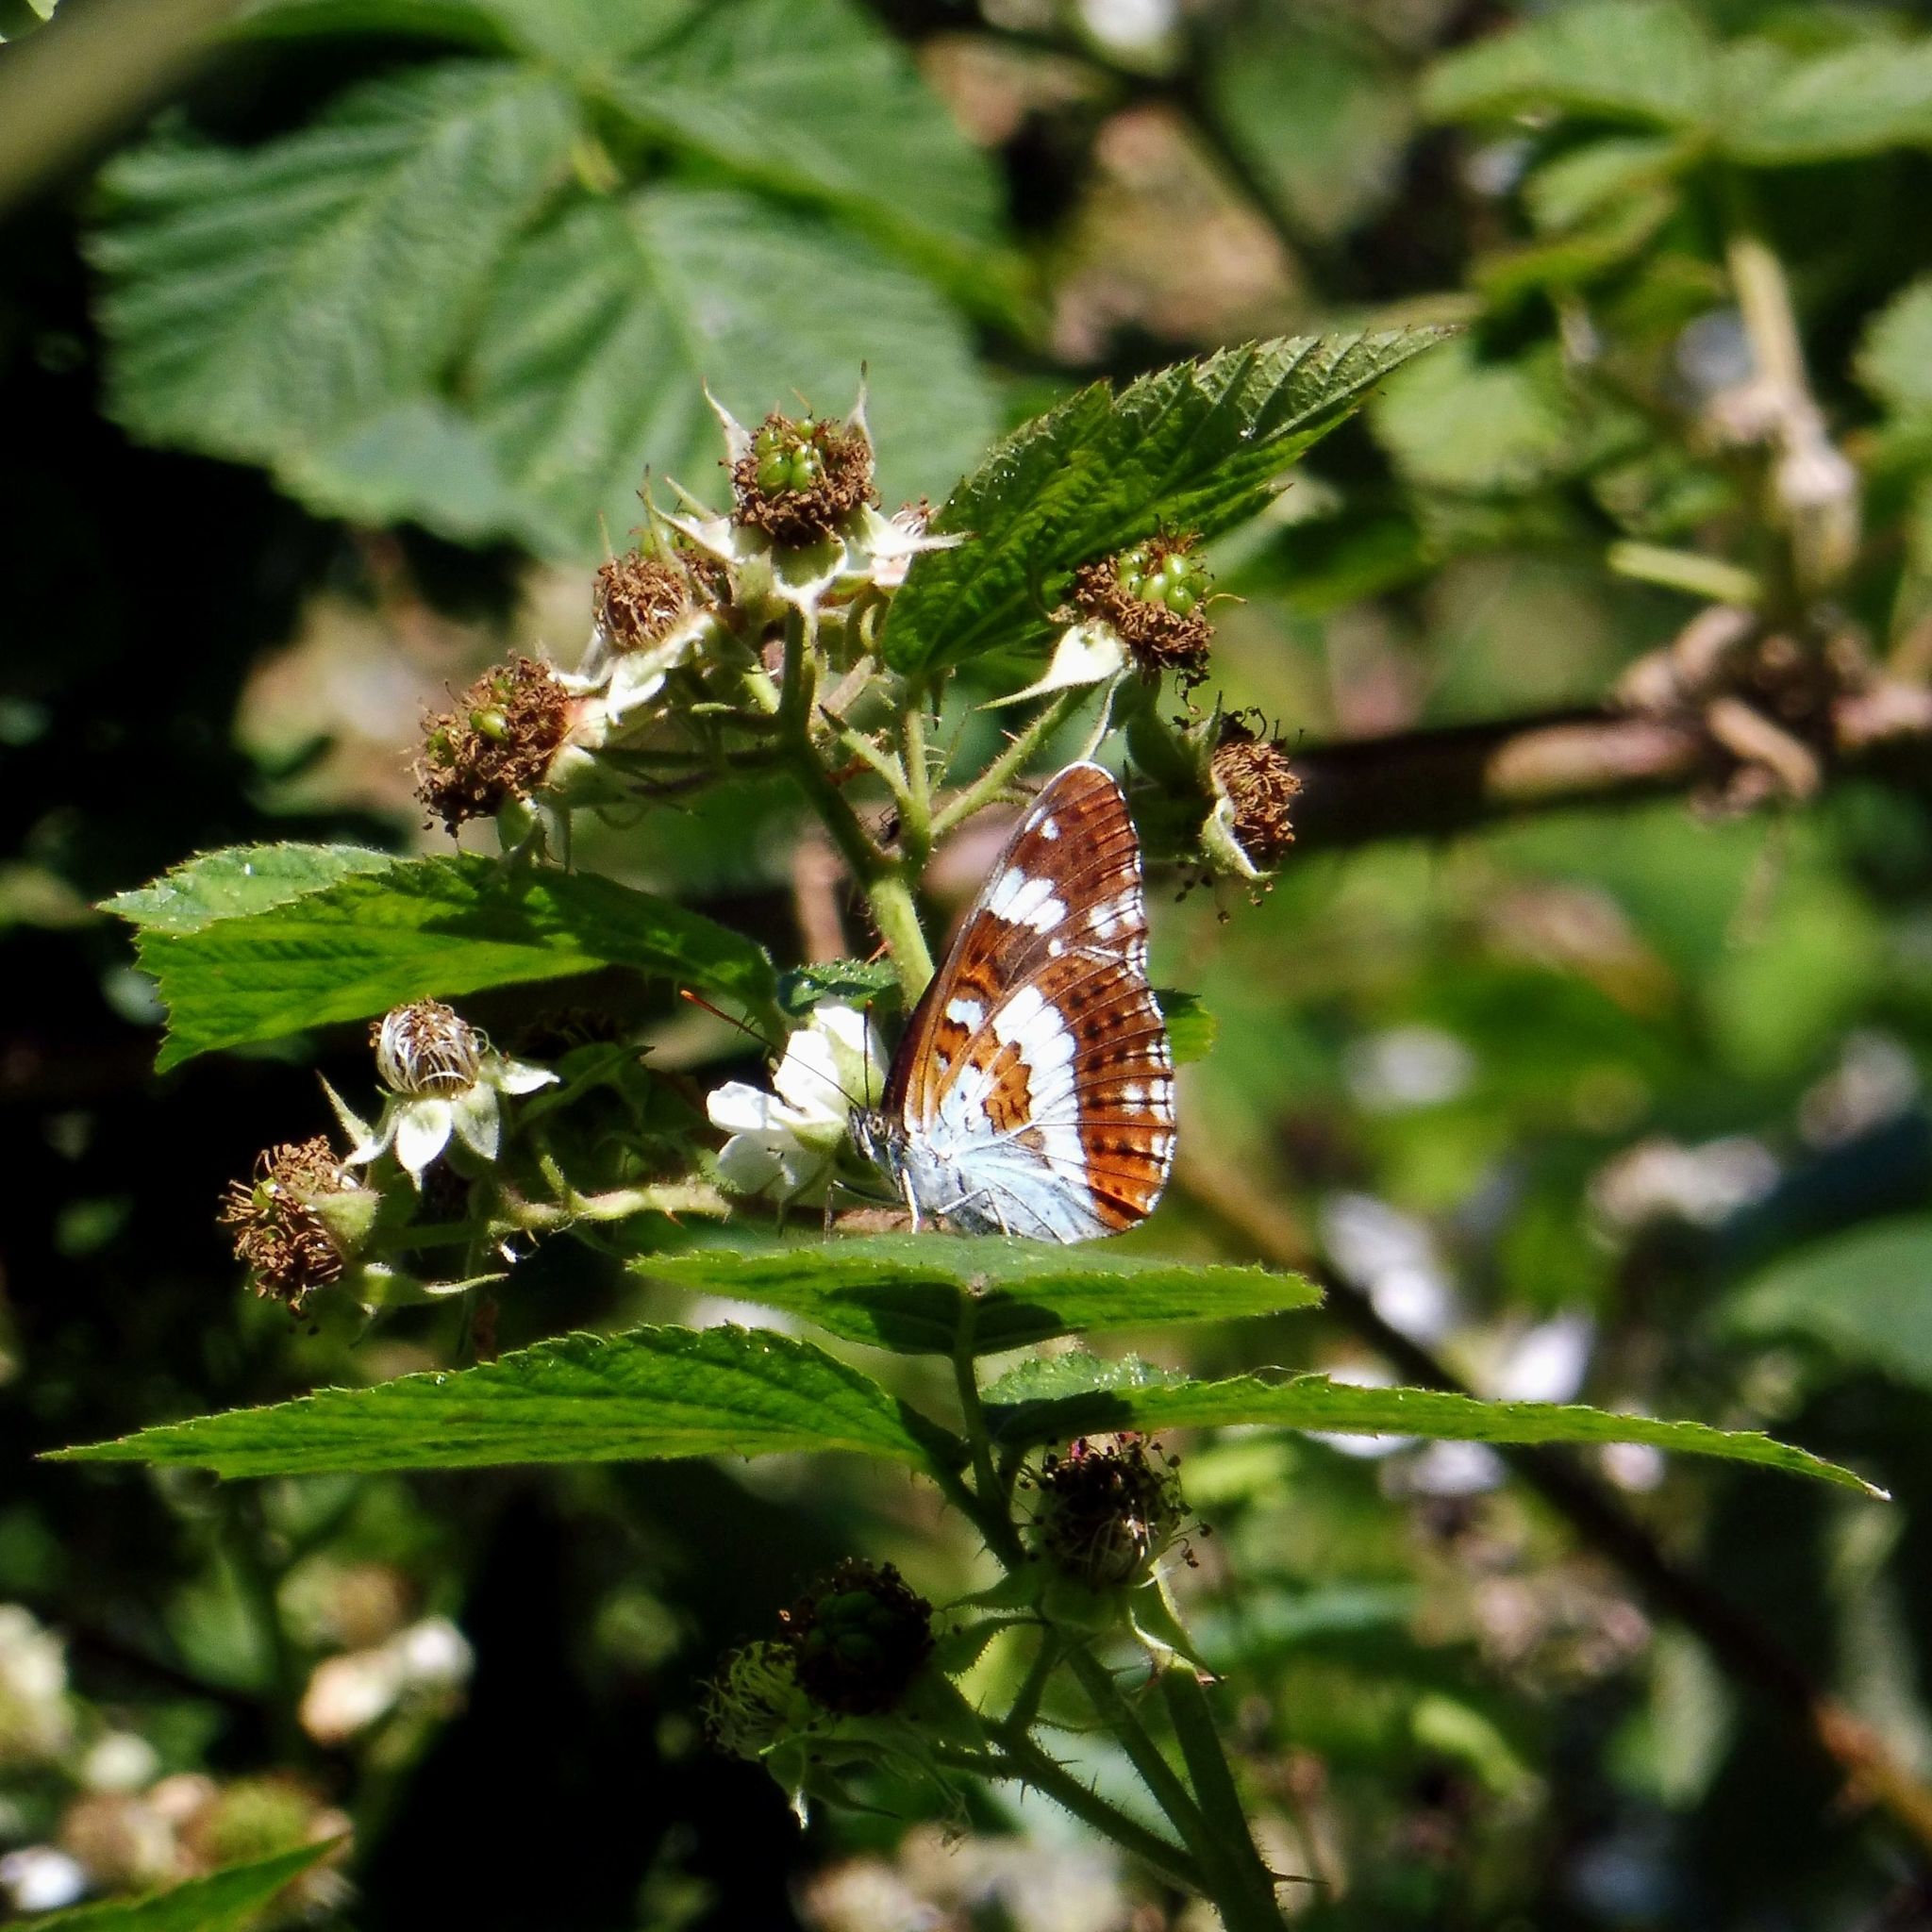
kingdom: Animalia
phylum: Arthropoda
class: Insecta
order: Lepidoptera
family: Nymphalidae
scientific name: Nymphalidae
